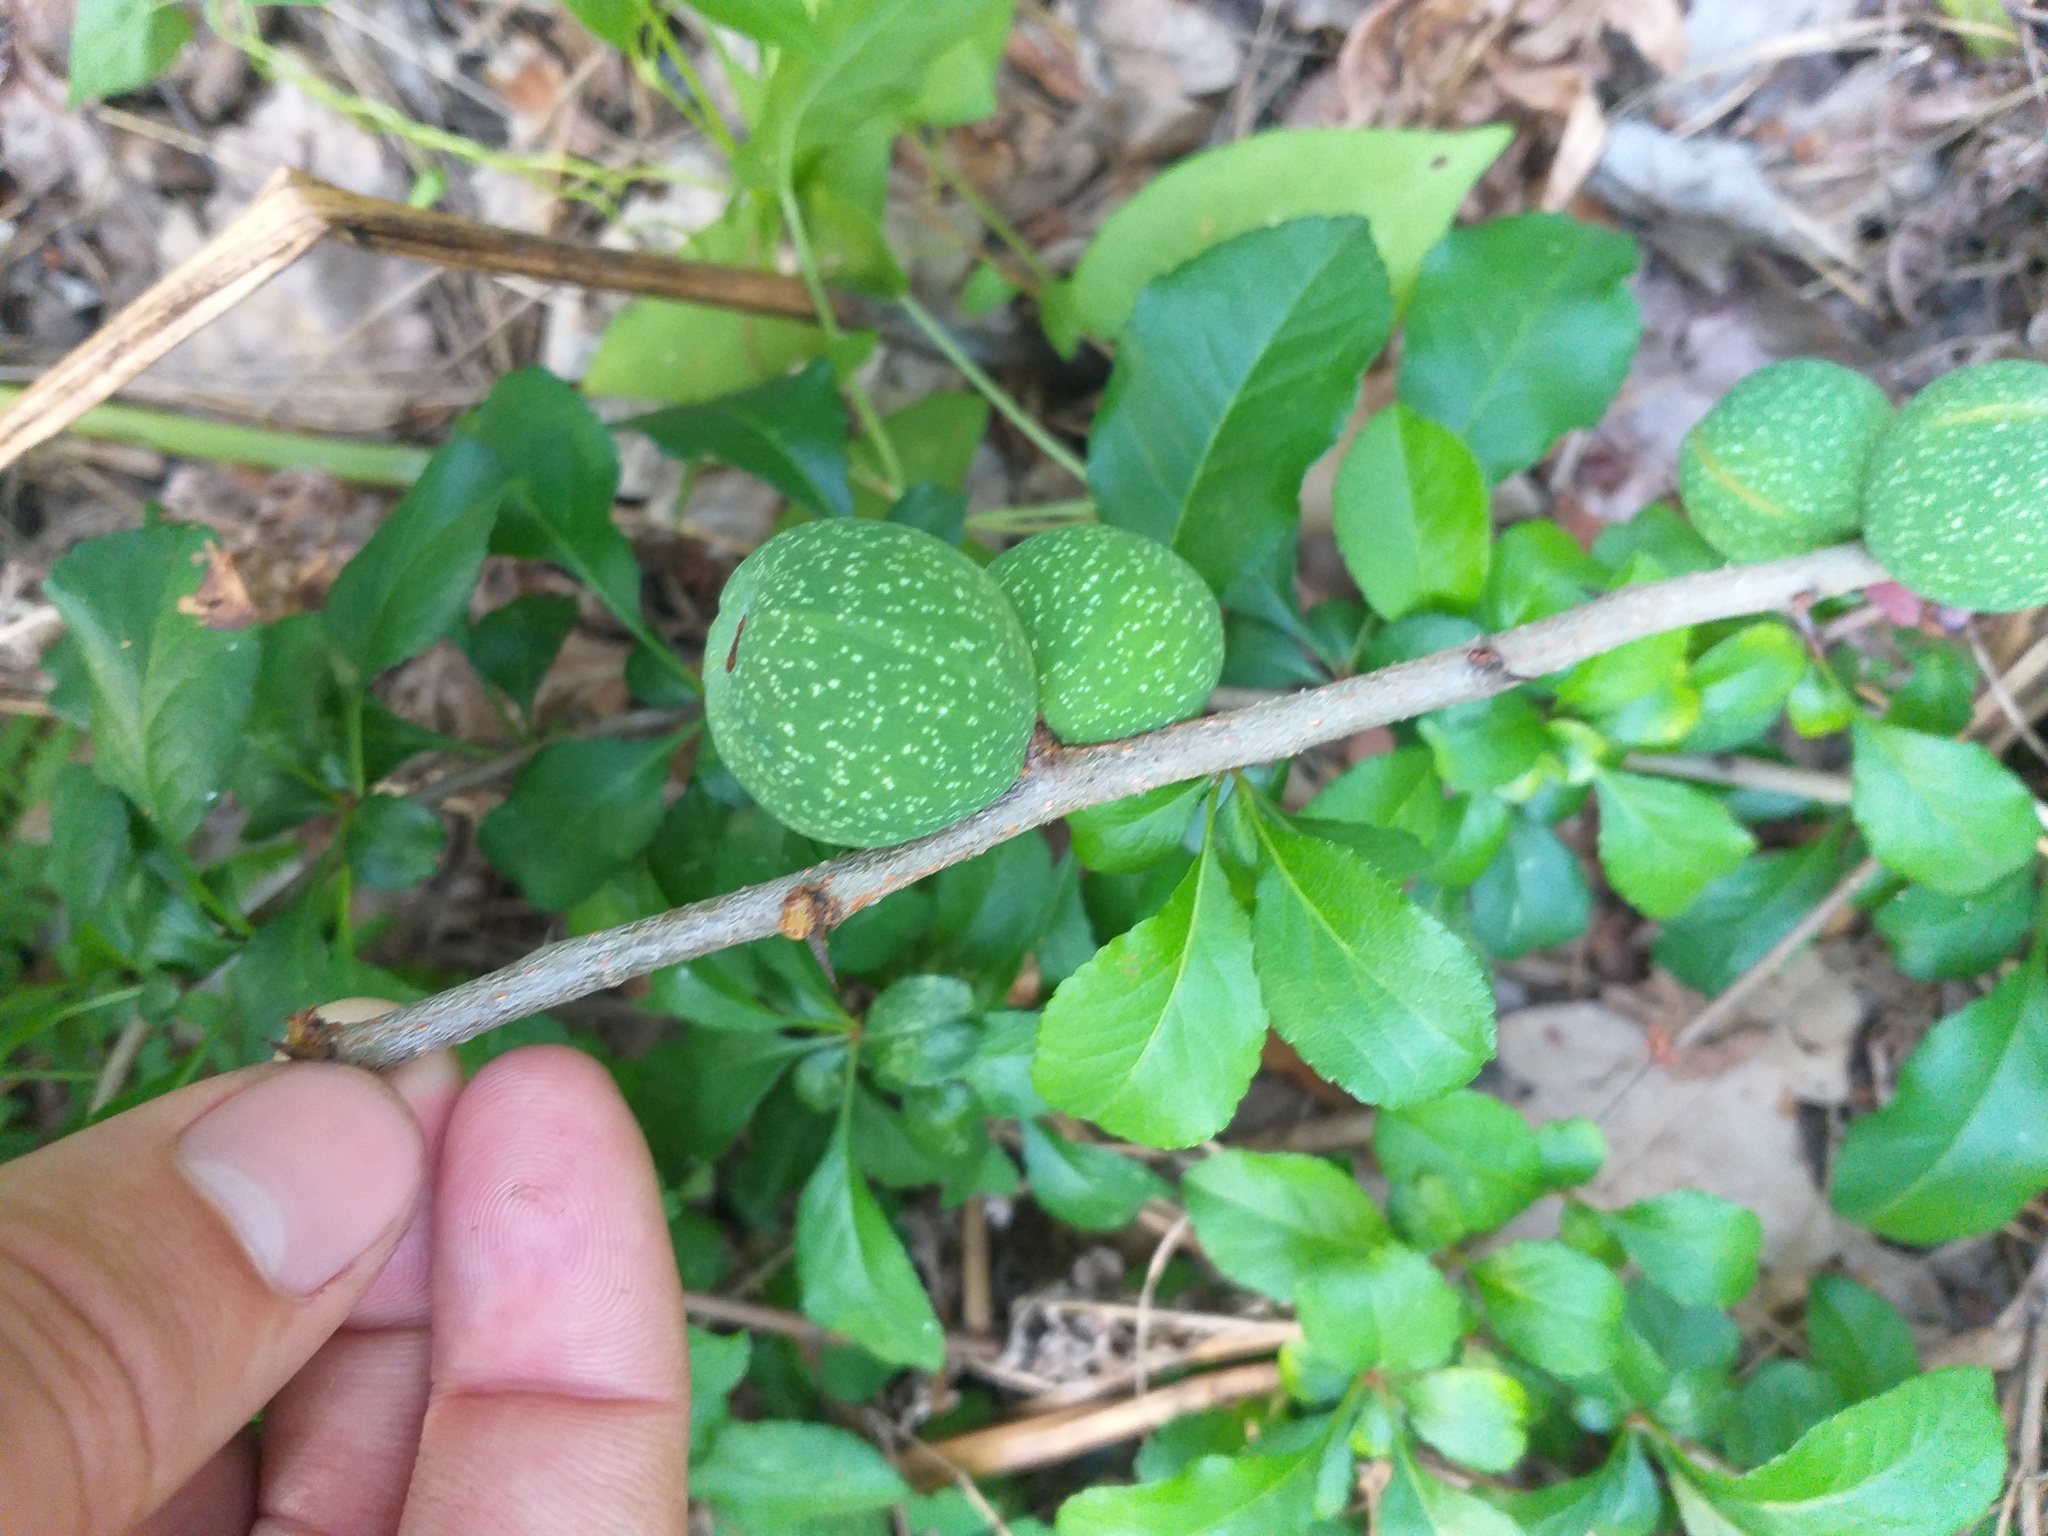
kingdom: Plantae
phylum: Tracheophyta
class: Magnoliopsida
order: Rosales
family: Rosaceae
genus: Chaenomeles
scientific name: Chaenomeles japonica
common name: Japanese quince
